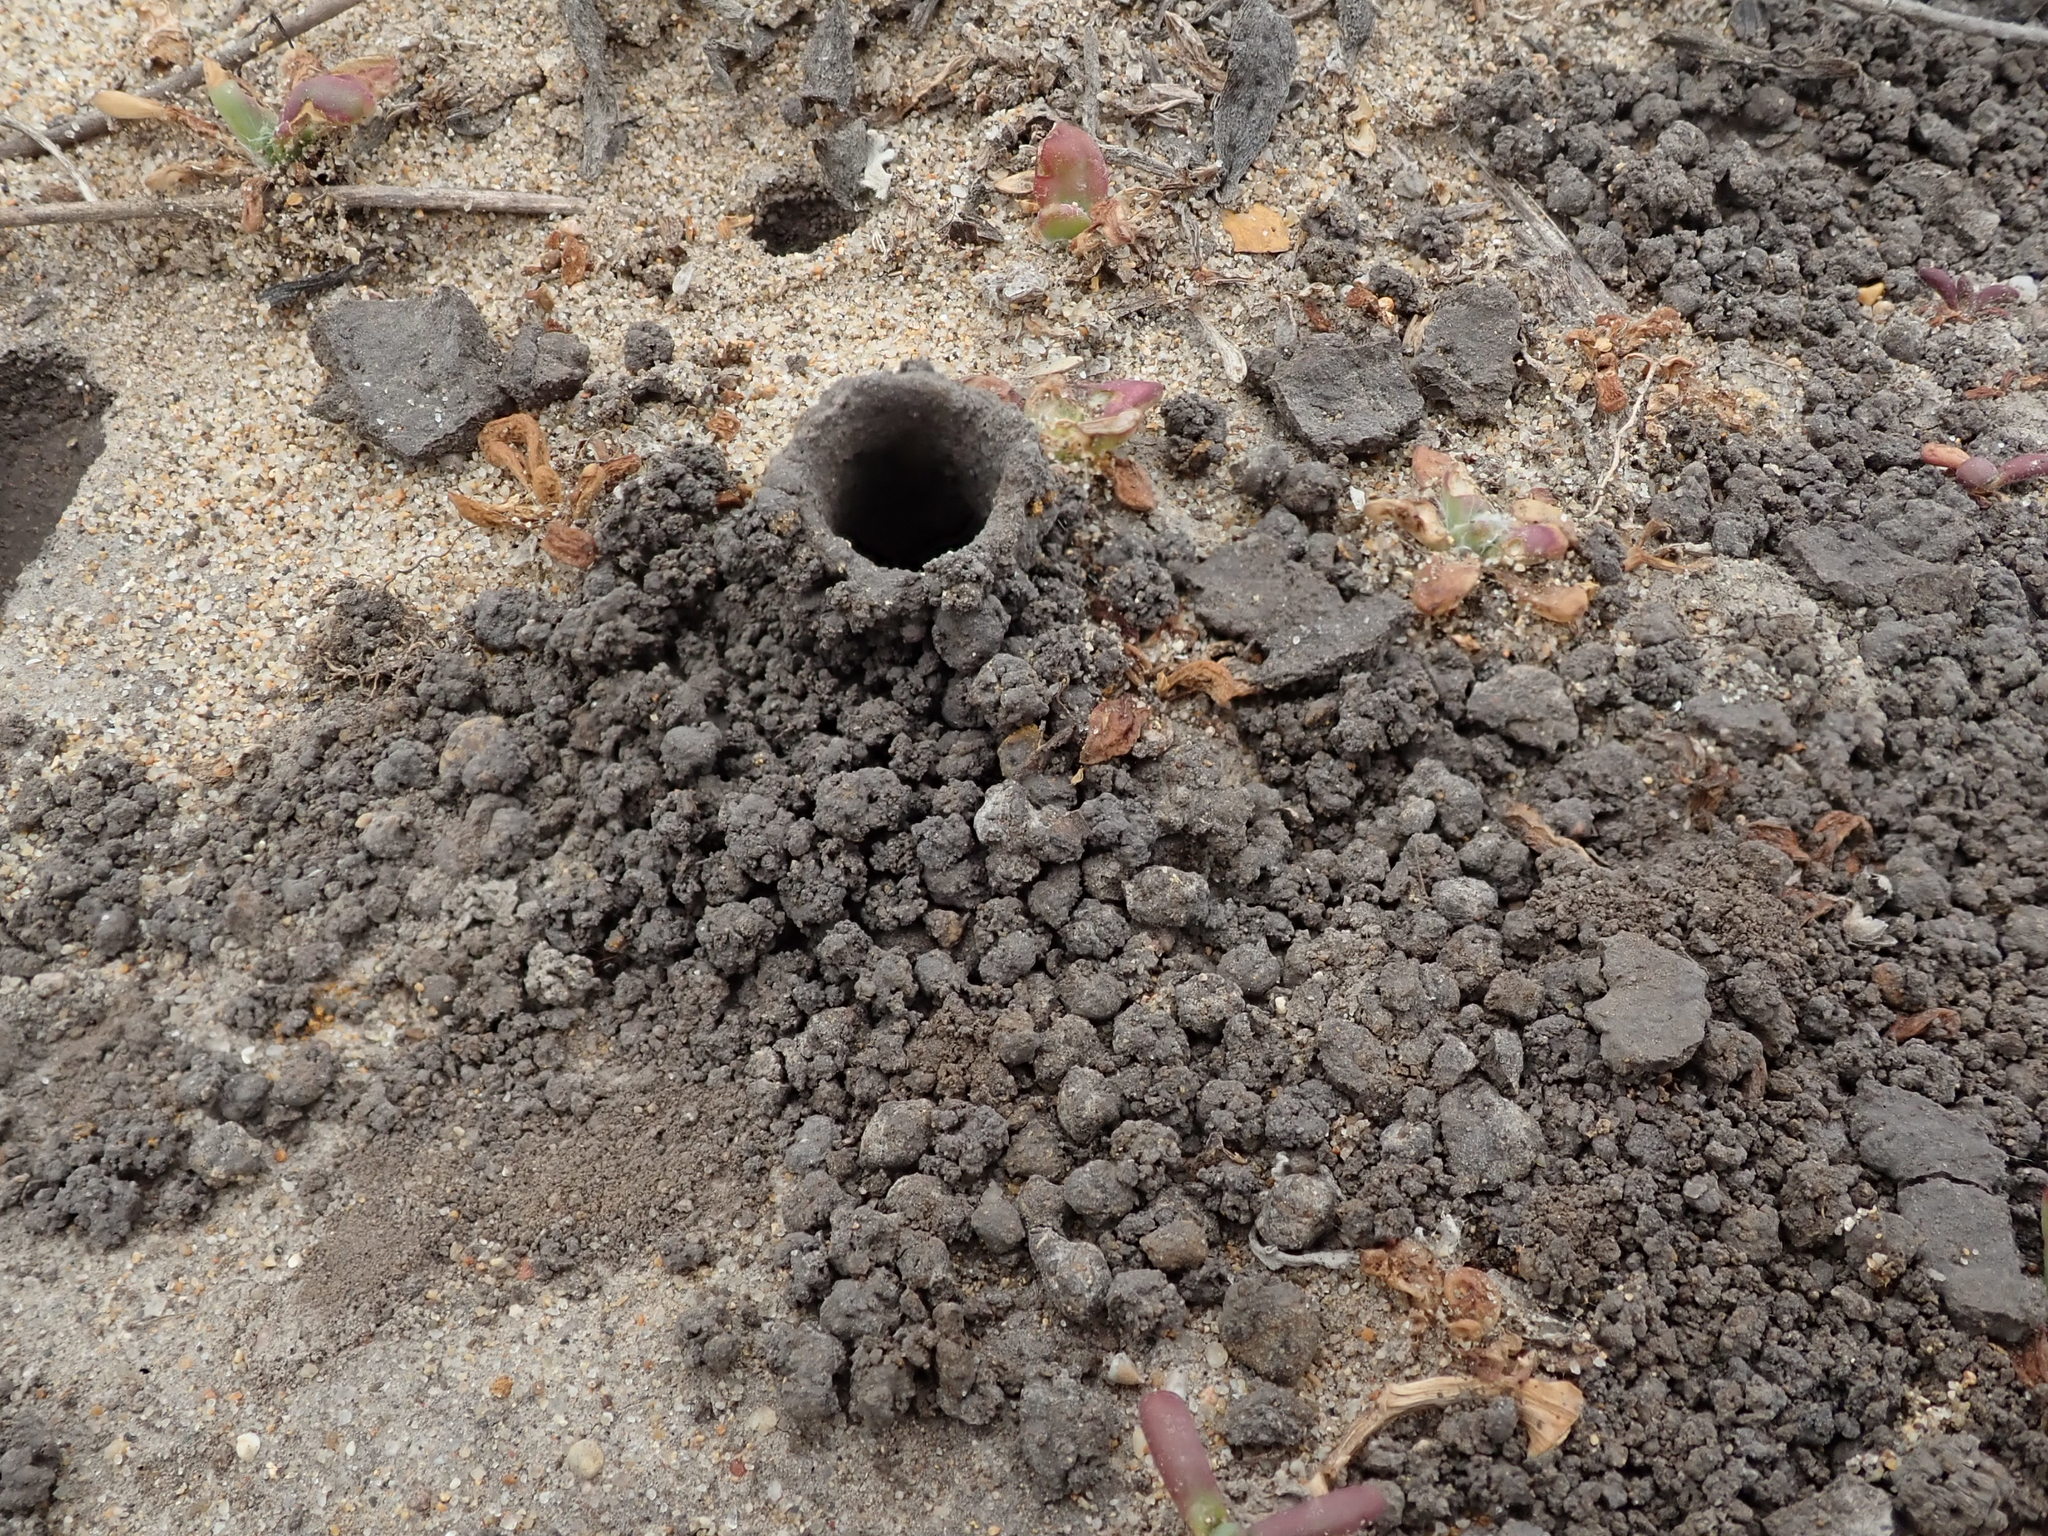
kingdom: Animalia
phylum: Arthropoda
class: Insecta
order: Hymenoptera
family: Eumenidae
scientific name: Eumenidae
